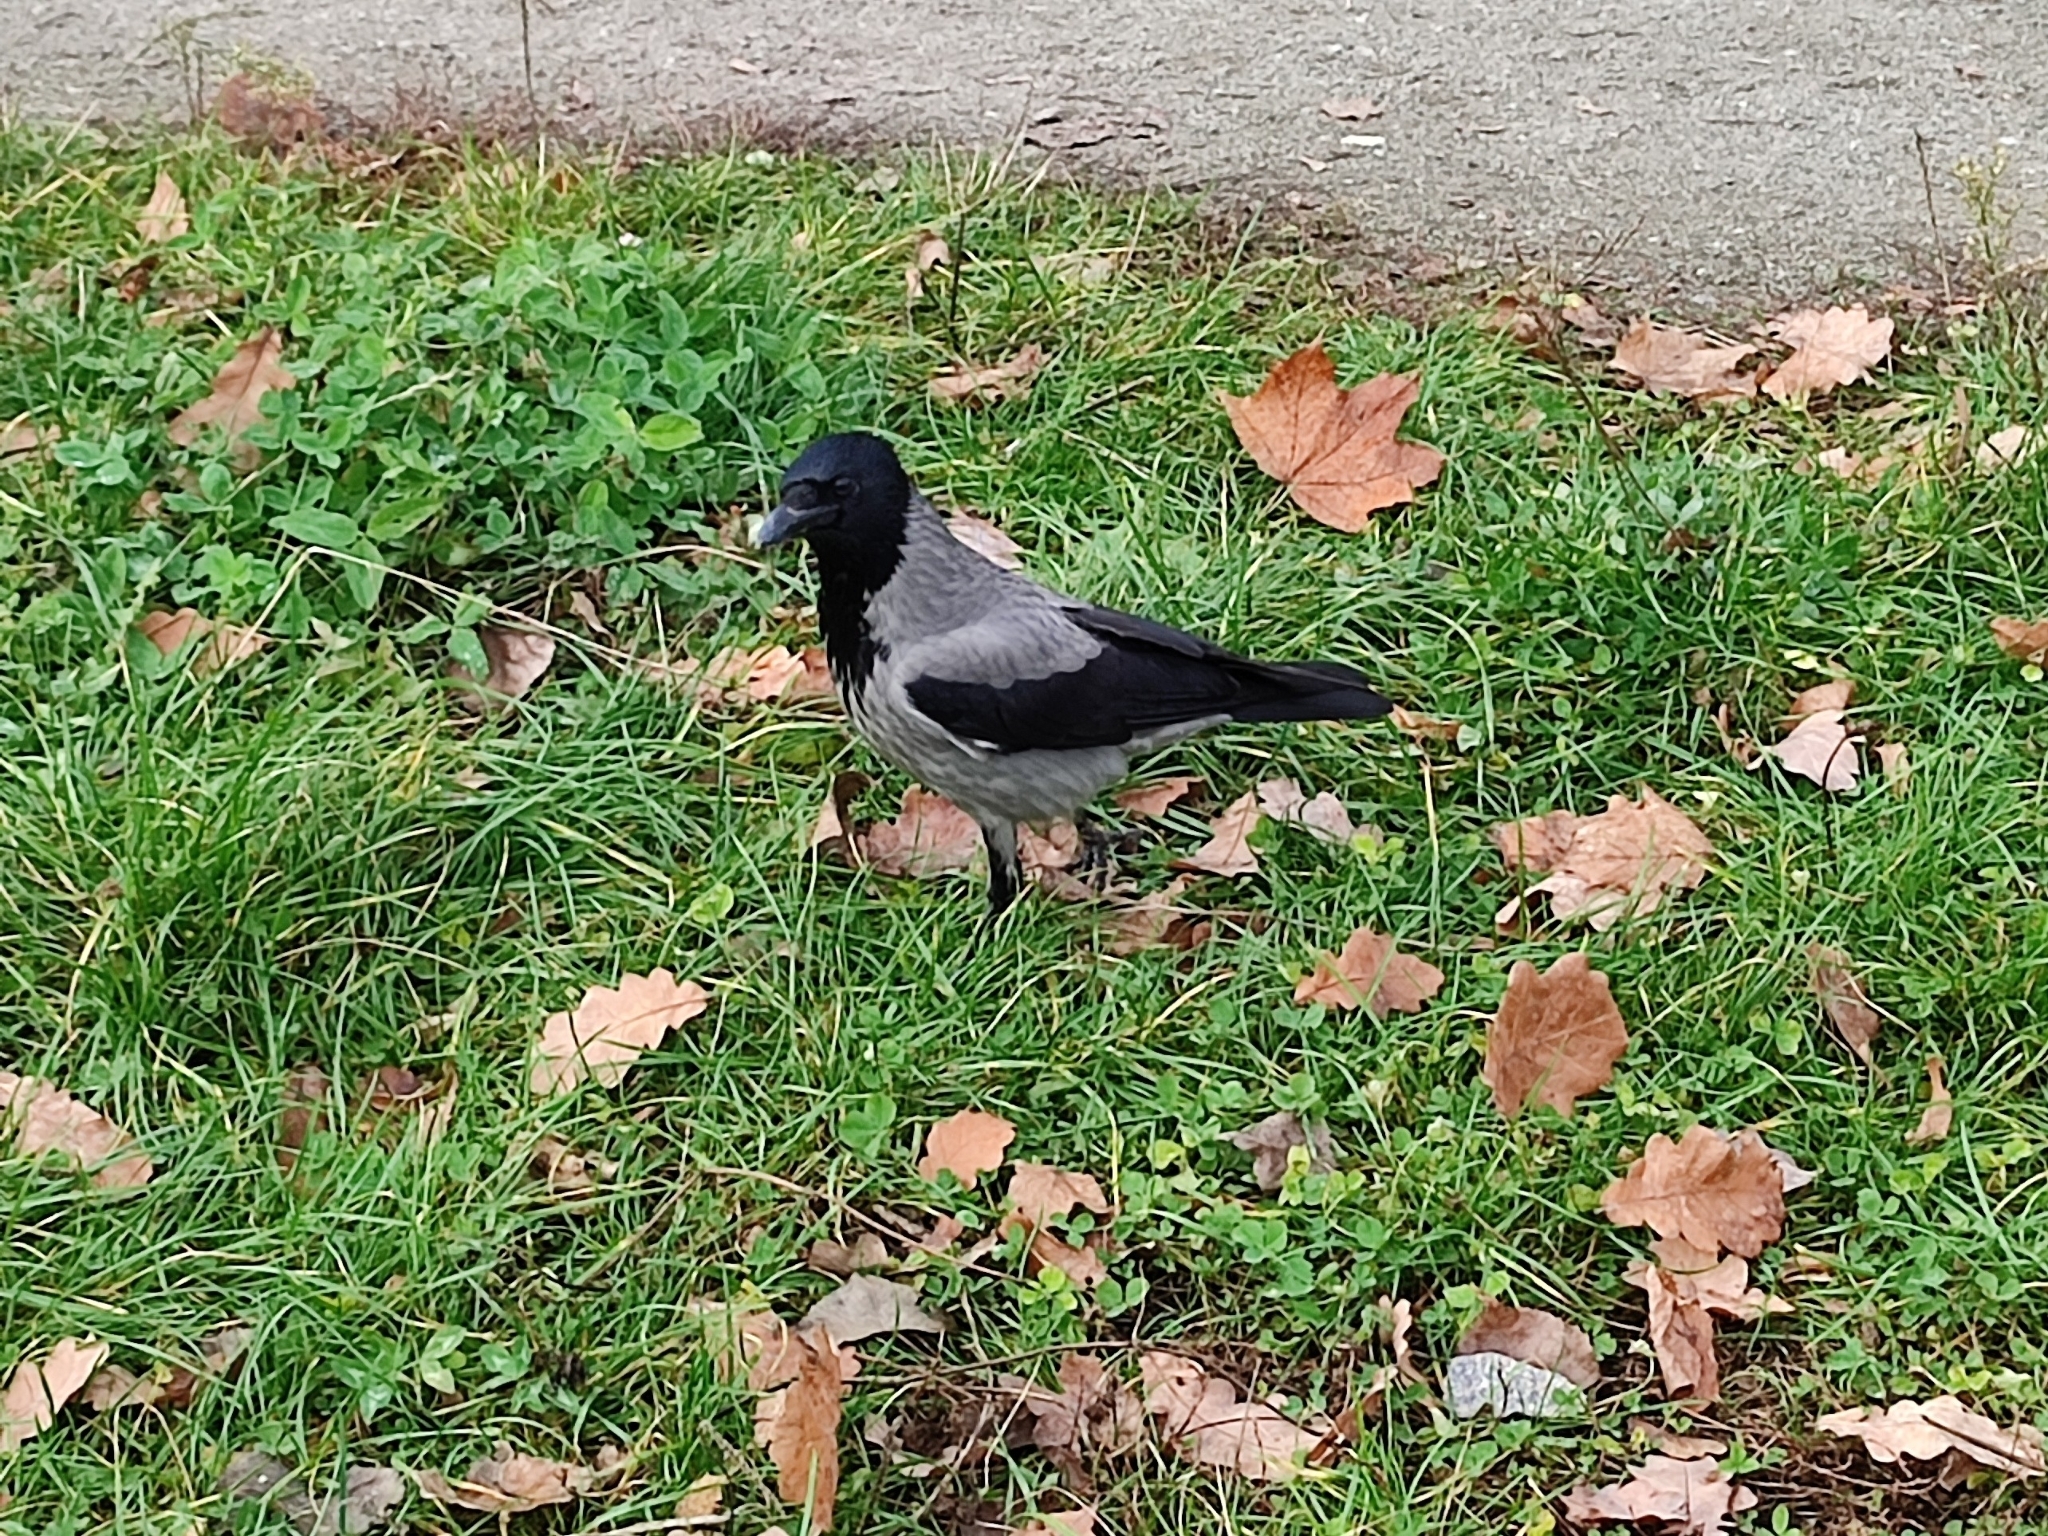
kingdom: Animalia
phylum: Chordata
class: Aves
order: Passeriformes
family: Corvidae
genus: Corvus
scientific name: Corvus cornix
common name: Hooded crow
